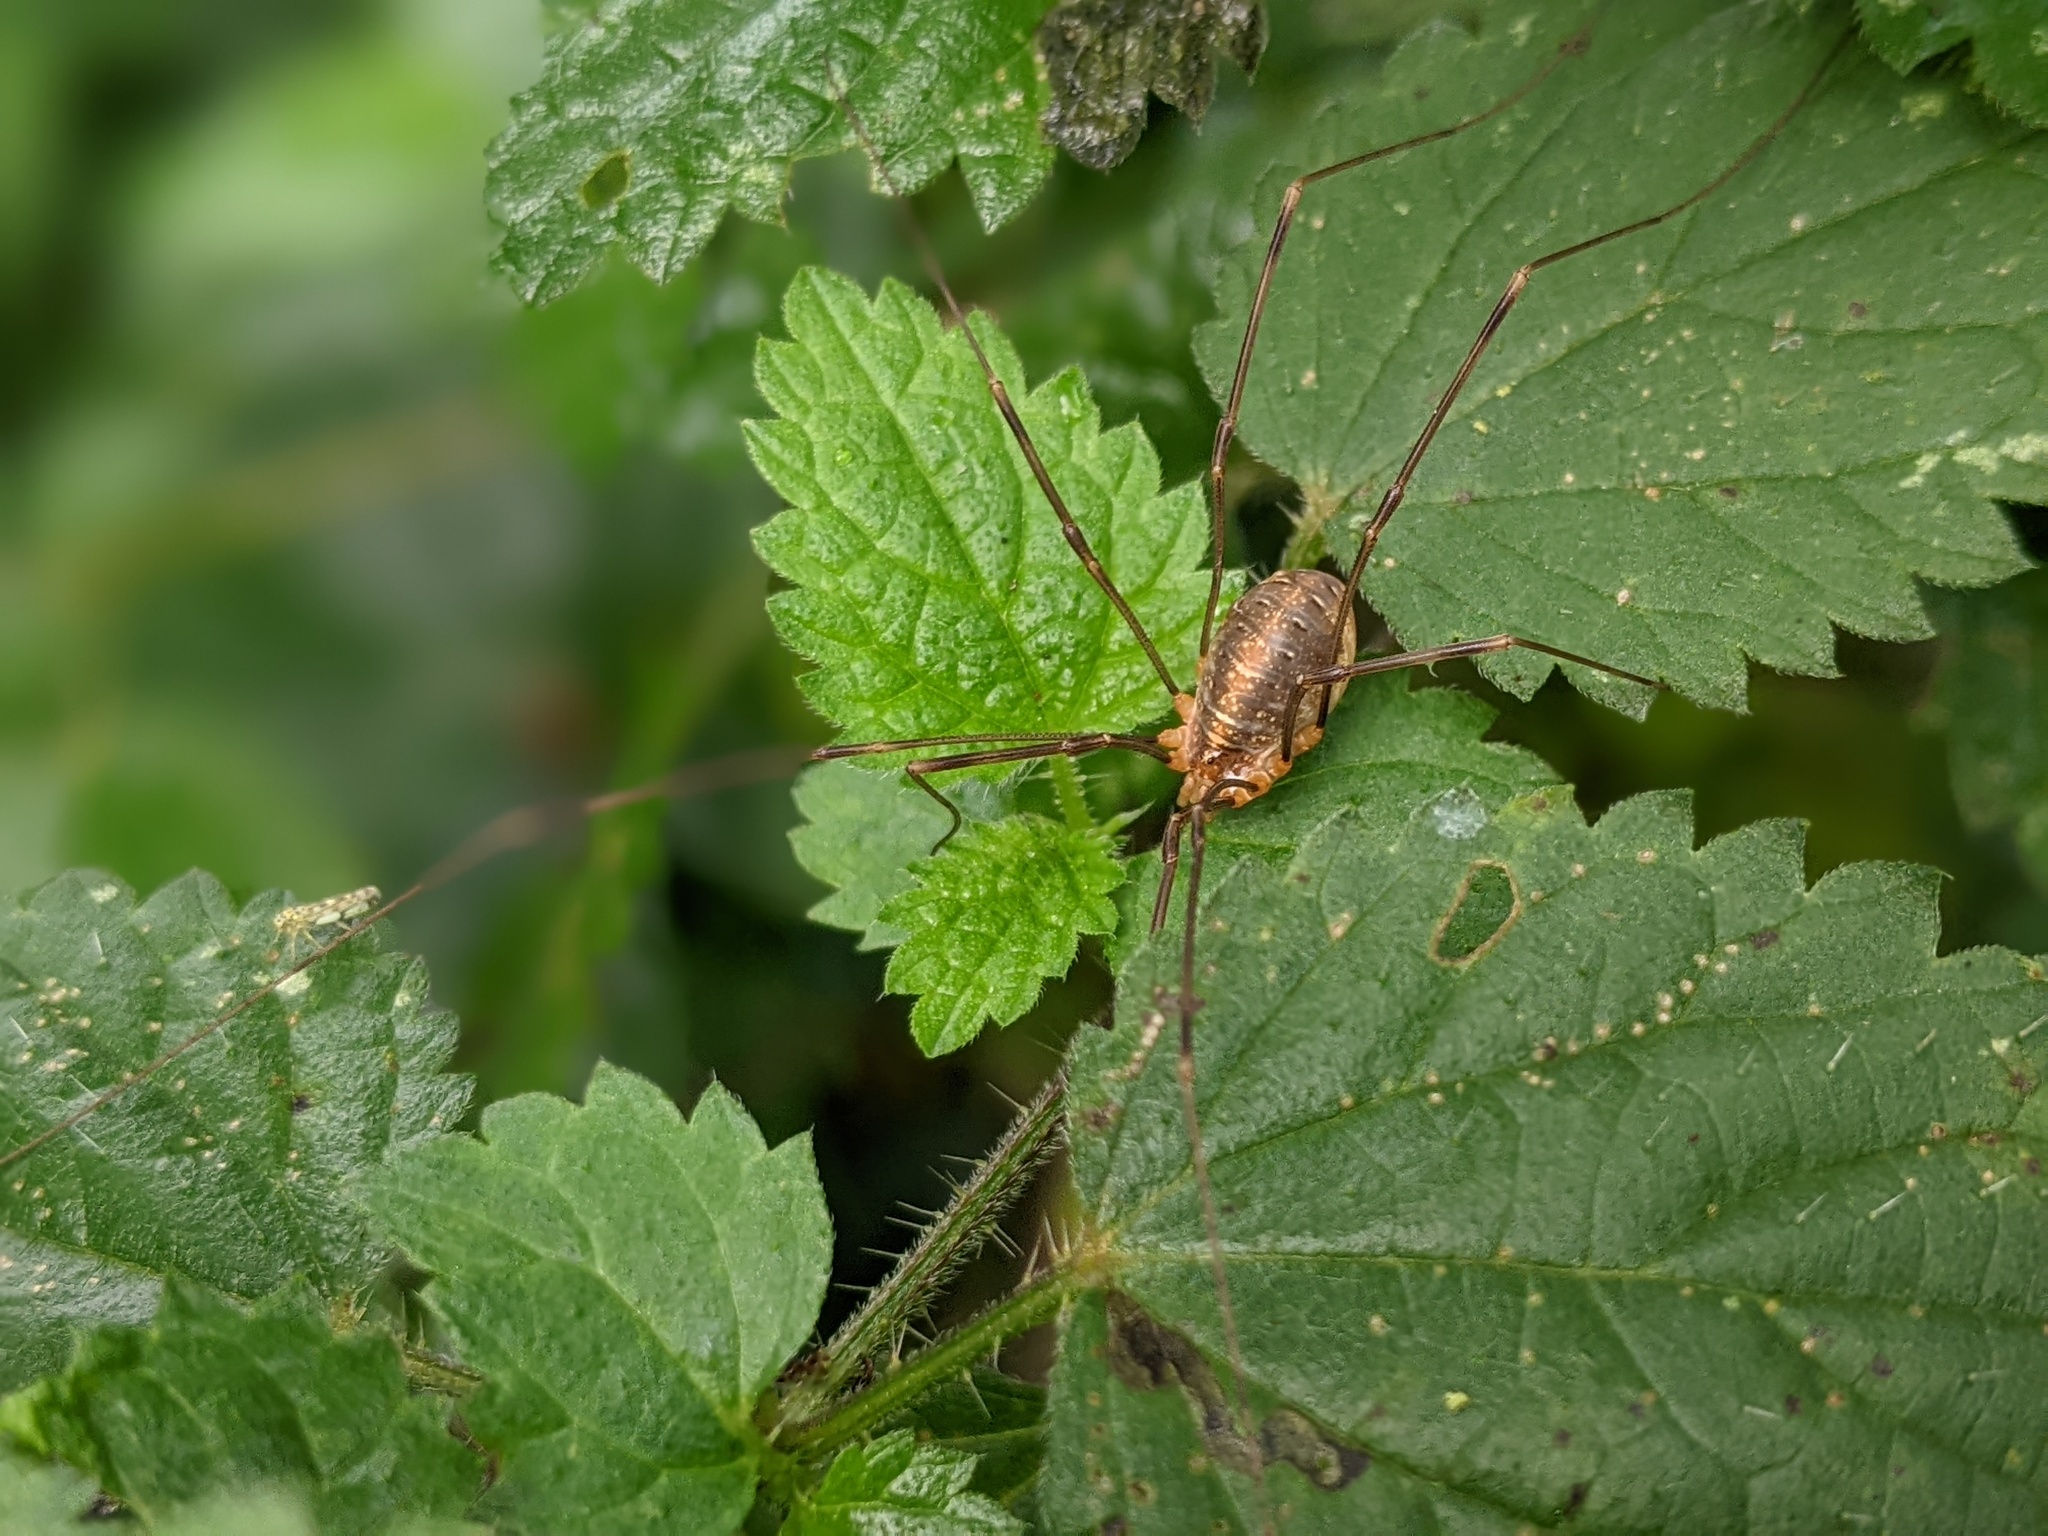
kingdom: Animalia
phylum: Arthropoda
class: Arachnida
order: Opiliones
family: Phalangiidae
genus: Opilio
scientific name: Opilio canestrinii
